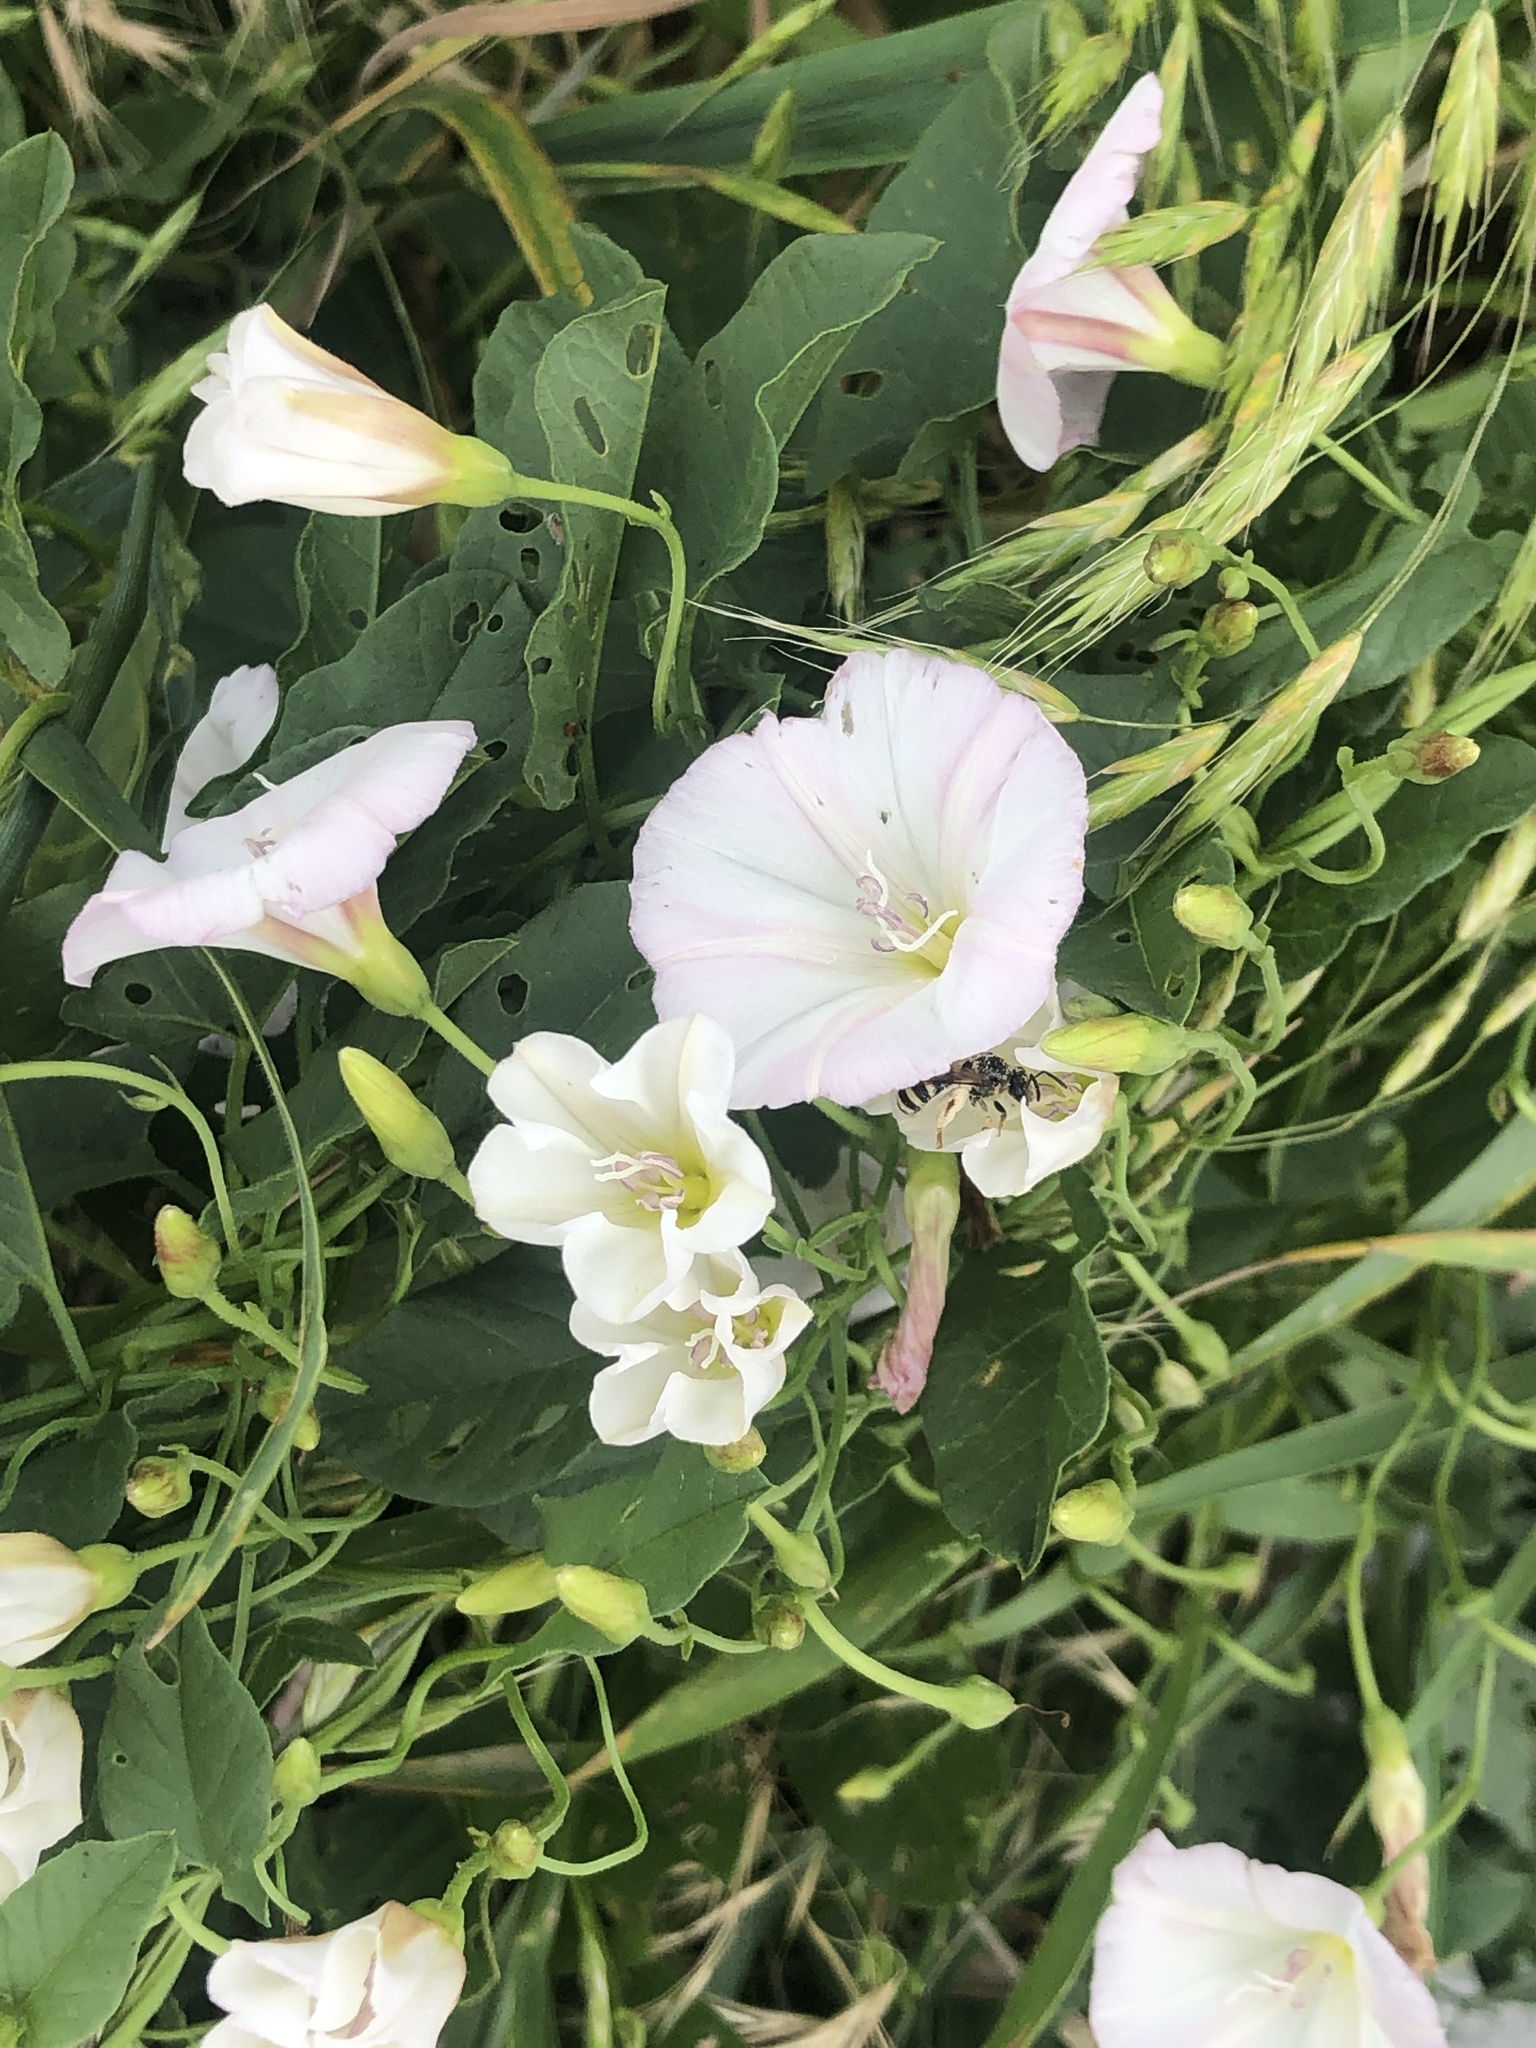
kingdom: Plantae
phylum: Tracheophyta
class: Magnoliopsida
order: Solanales
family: Convolvulaceae
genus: Convolvulus
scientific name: Convolvulus arvensis
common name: Field bindweed
